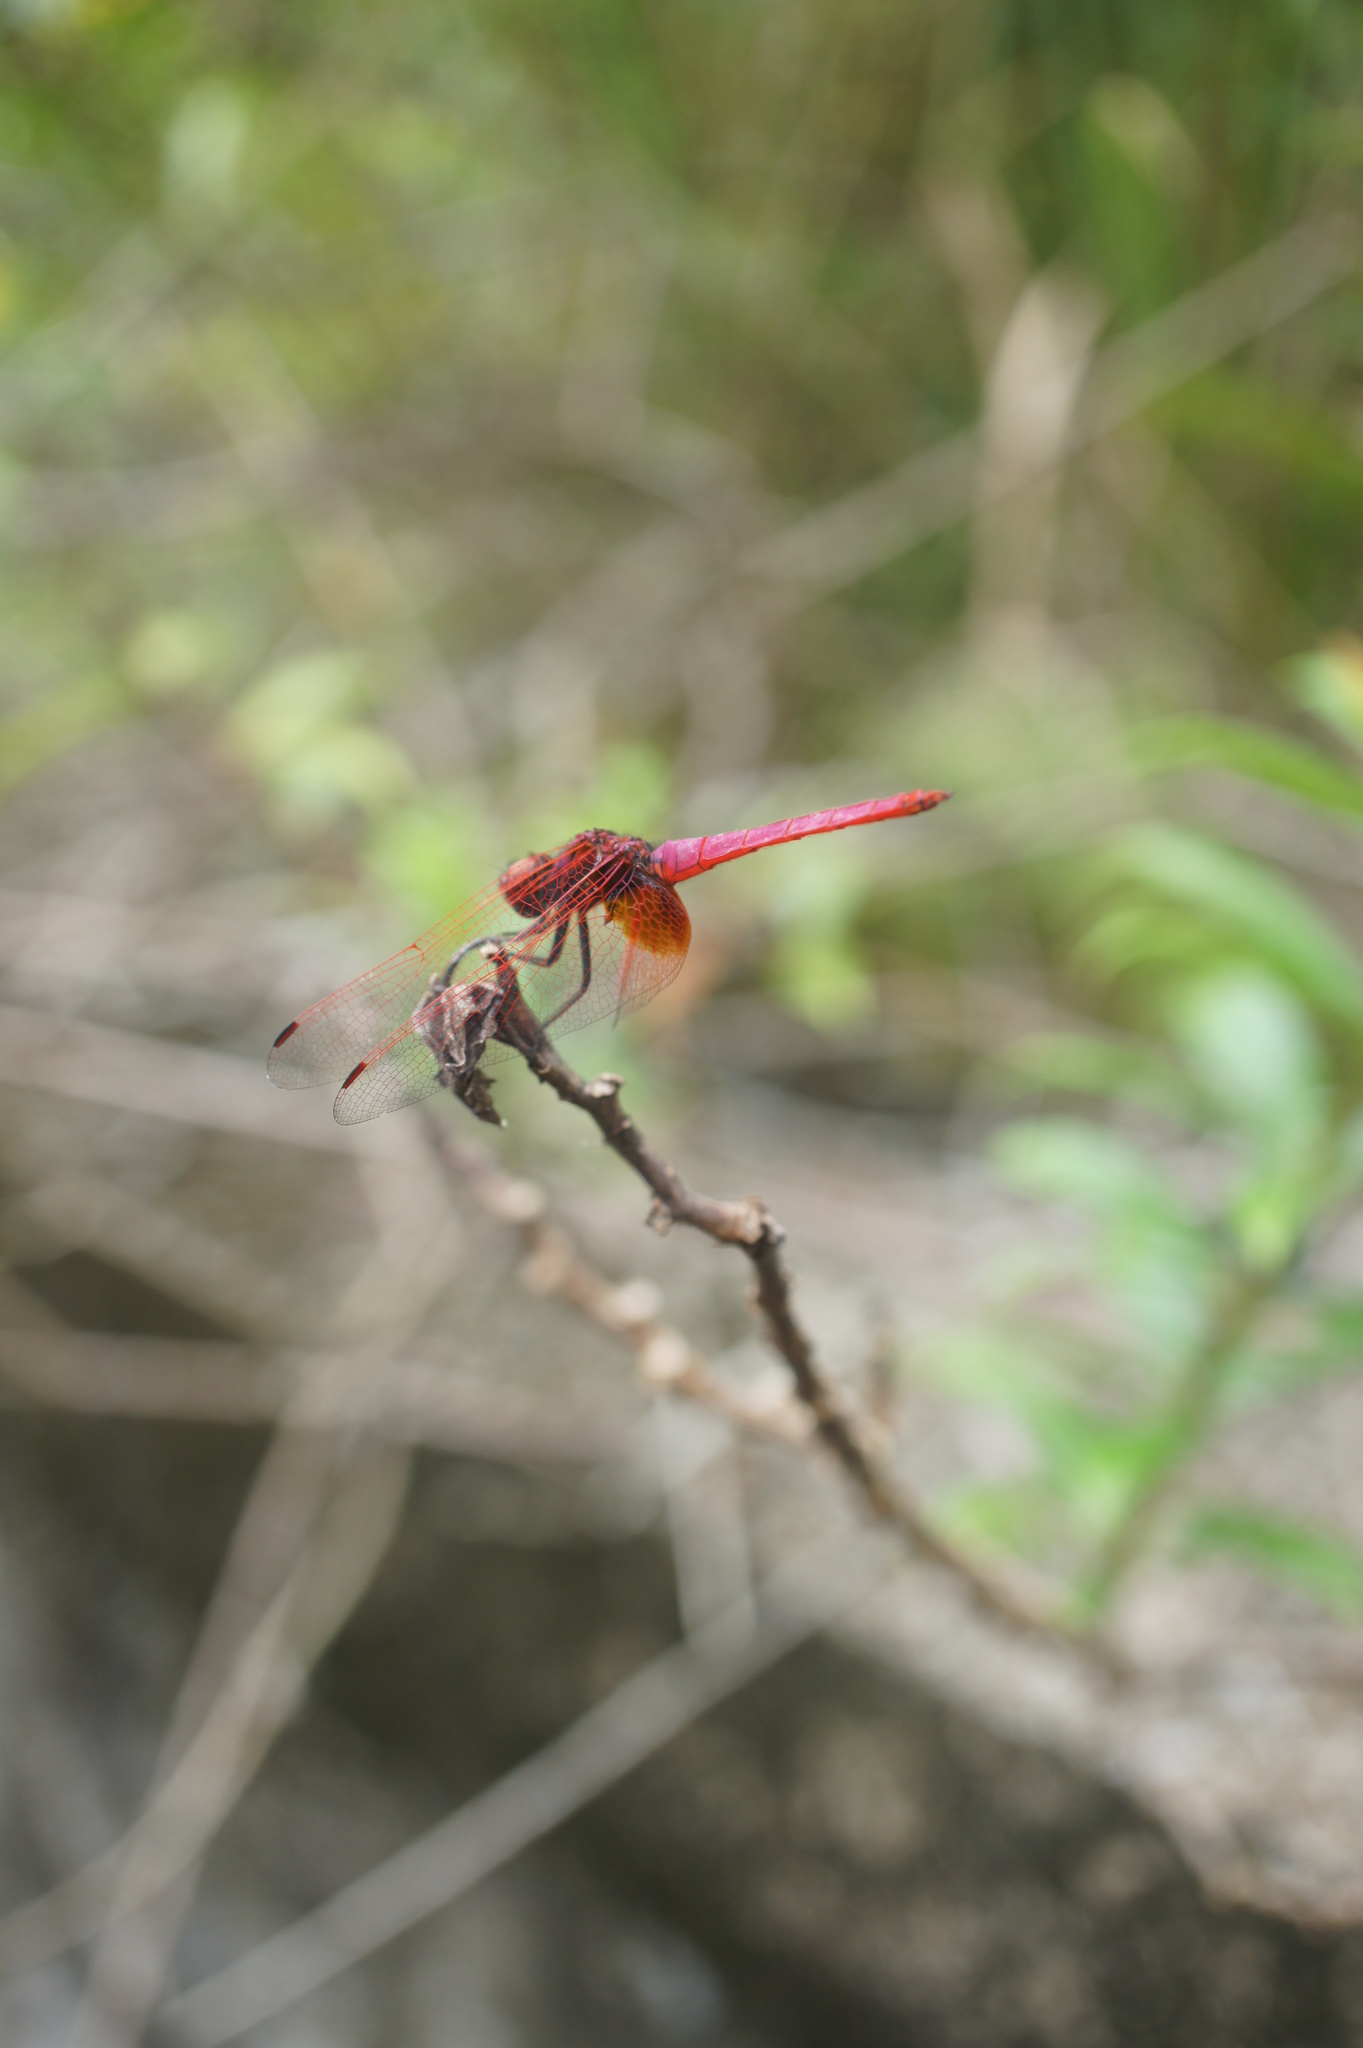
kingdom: Animalia
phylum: Arthropoda
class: Insecta
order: Odonata
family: Libellulidae
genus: Trithemis
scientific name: Trithemis aurora
